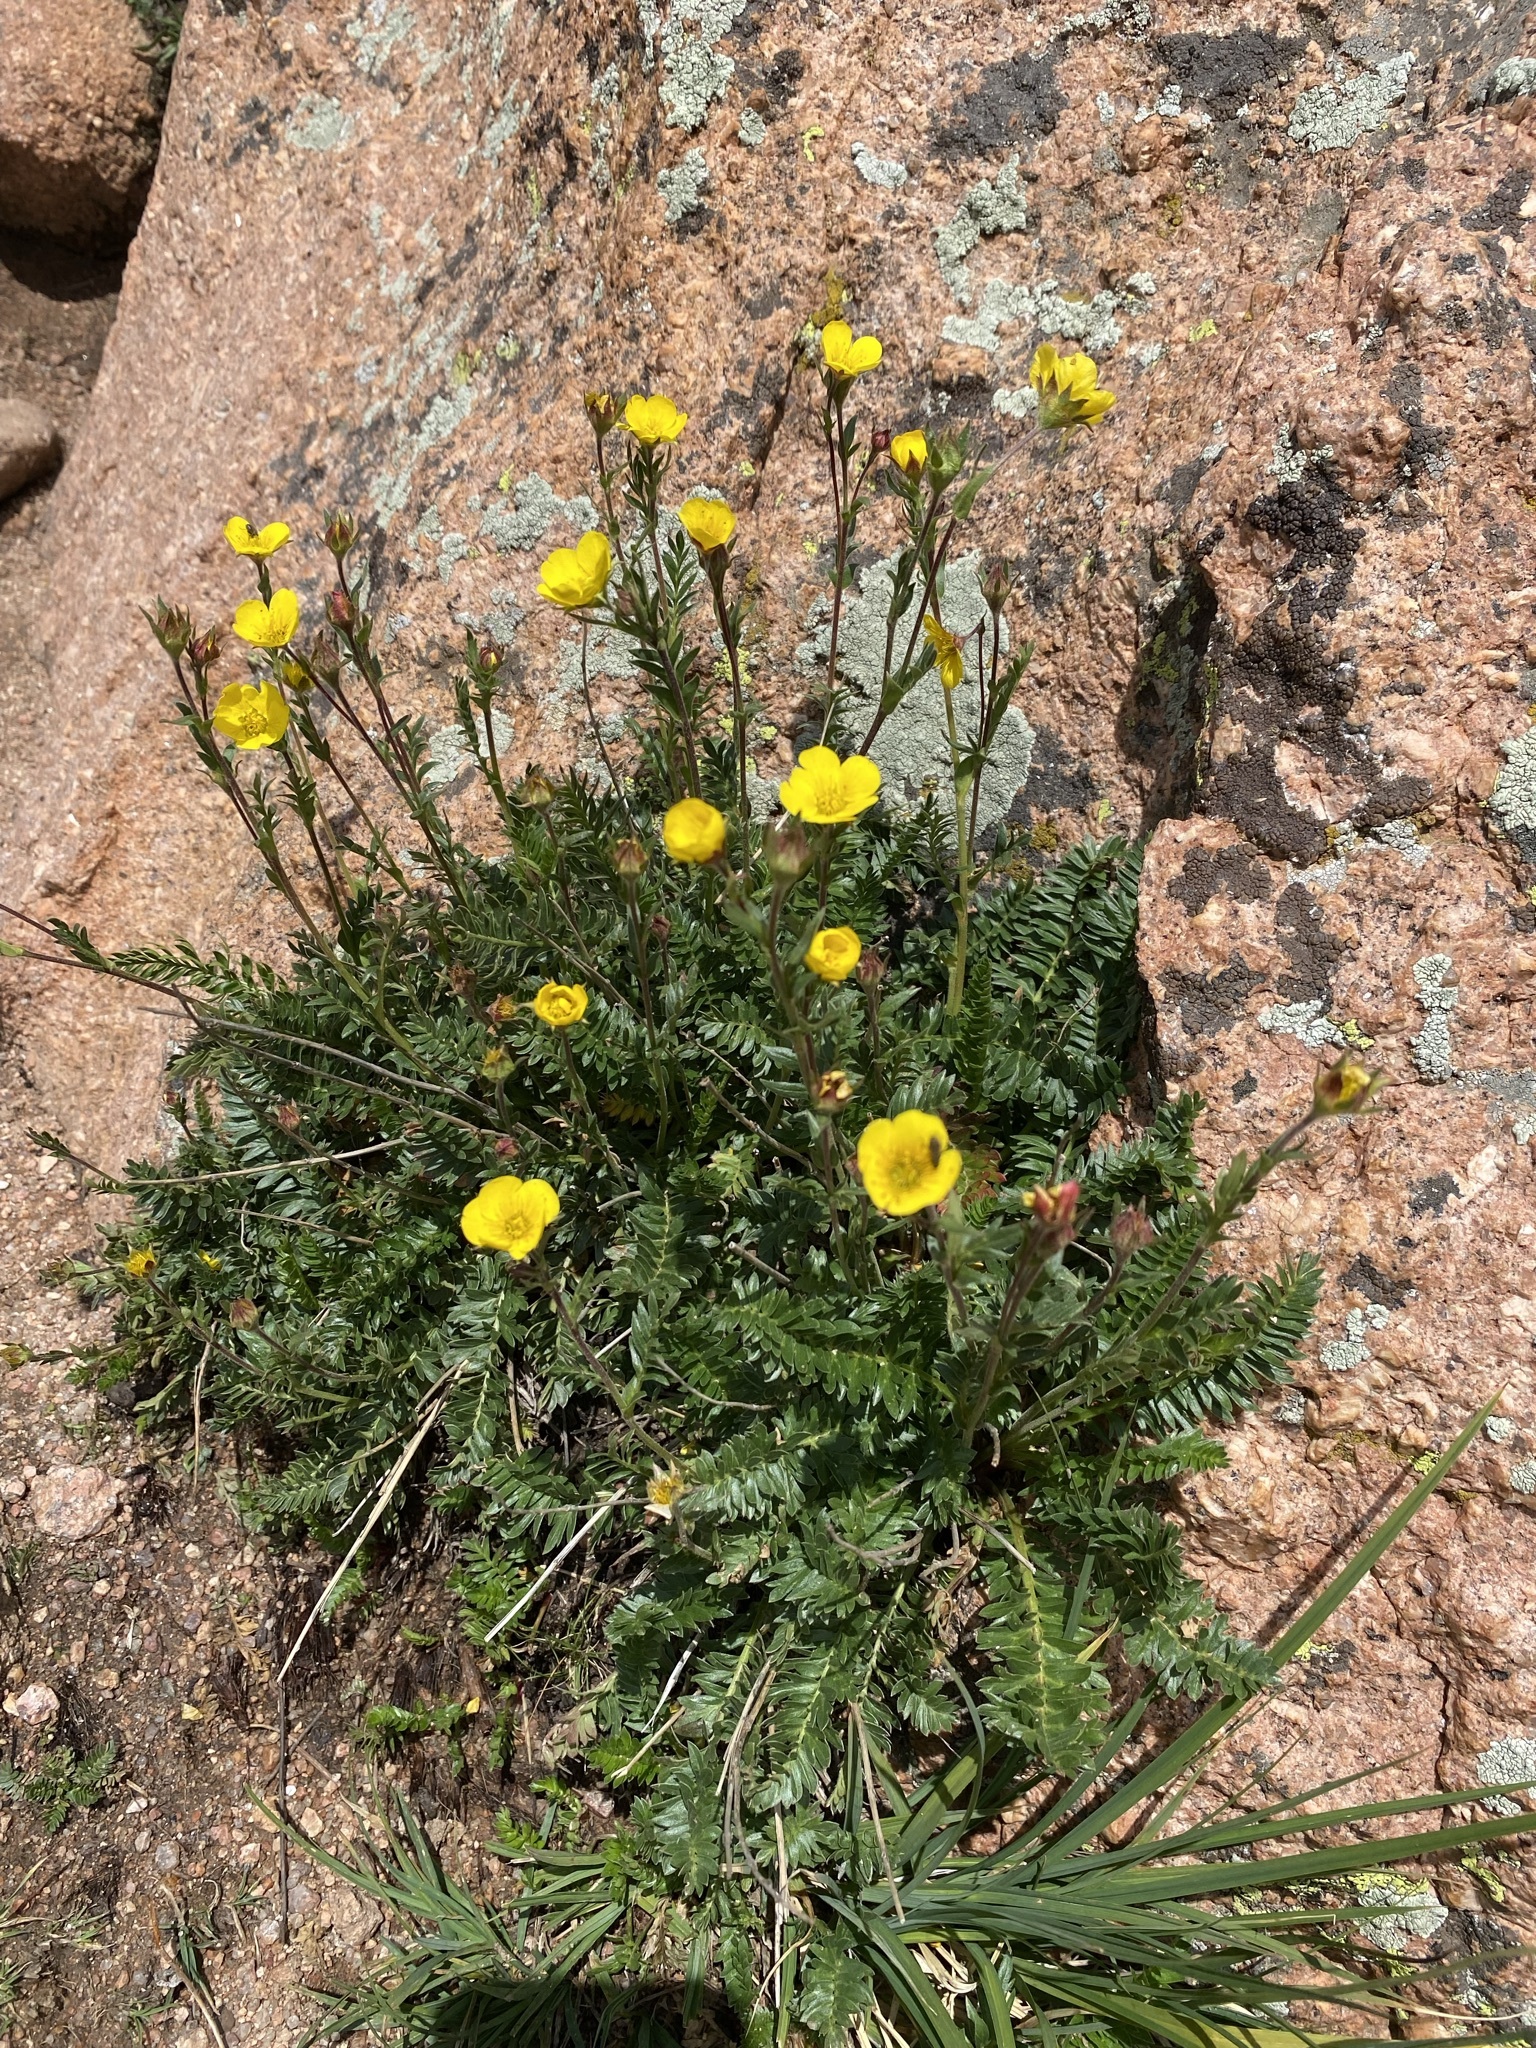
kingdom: Plantae
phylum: Tracheophyta
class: Magnoliopsida
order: Rosales
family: Rosaceae
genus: Geum
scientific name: Geum rossii
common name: Alpine avens
